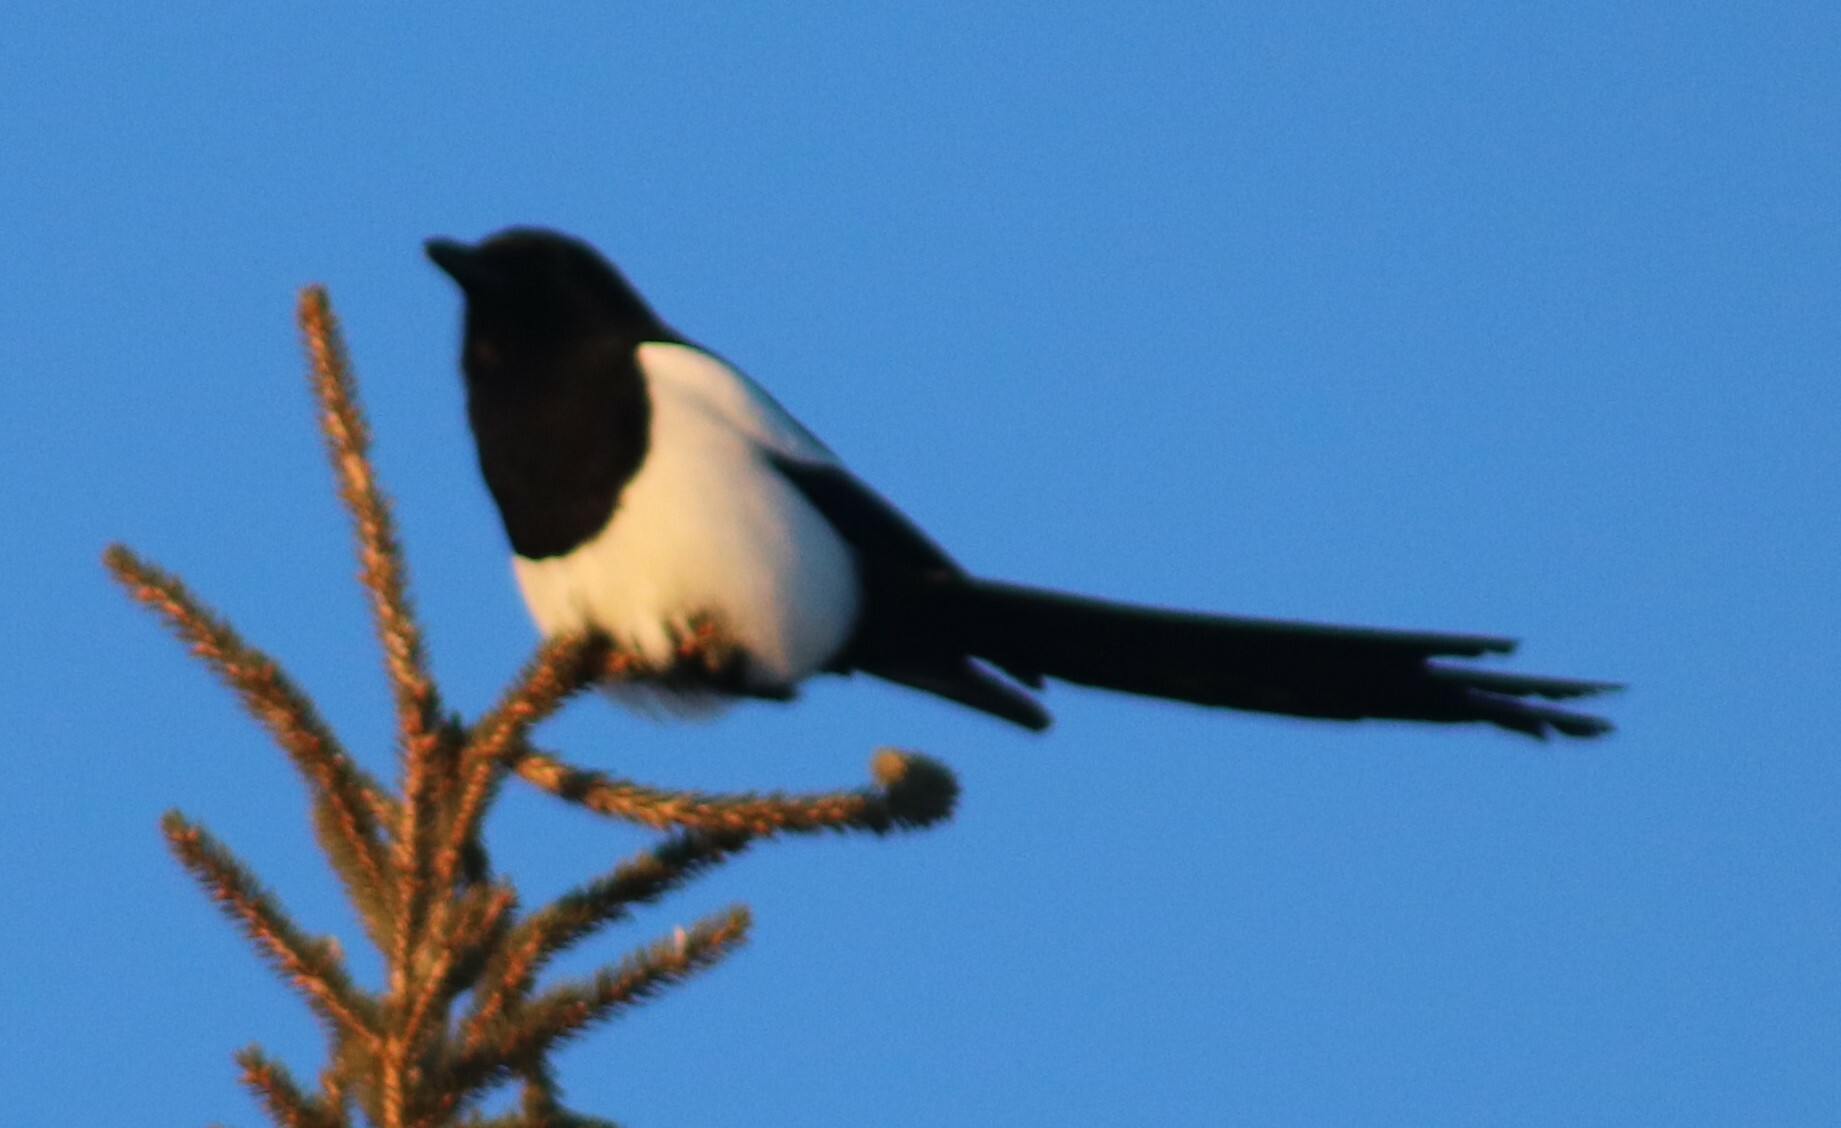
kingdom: Animalia
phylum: Chordata
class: Aves
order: Passeriformes
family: Corvidae
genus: Pica
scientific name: Pica hudsonia
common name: Black-billed magpie
